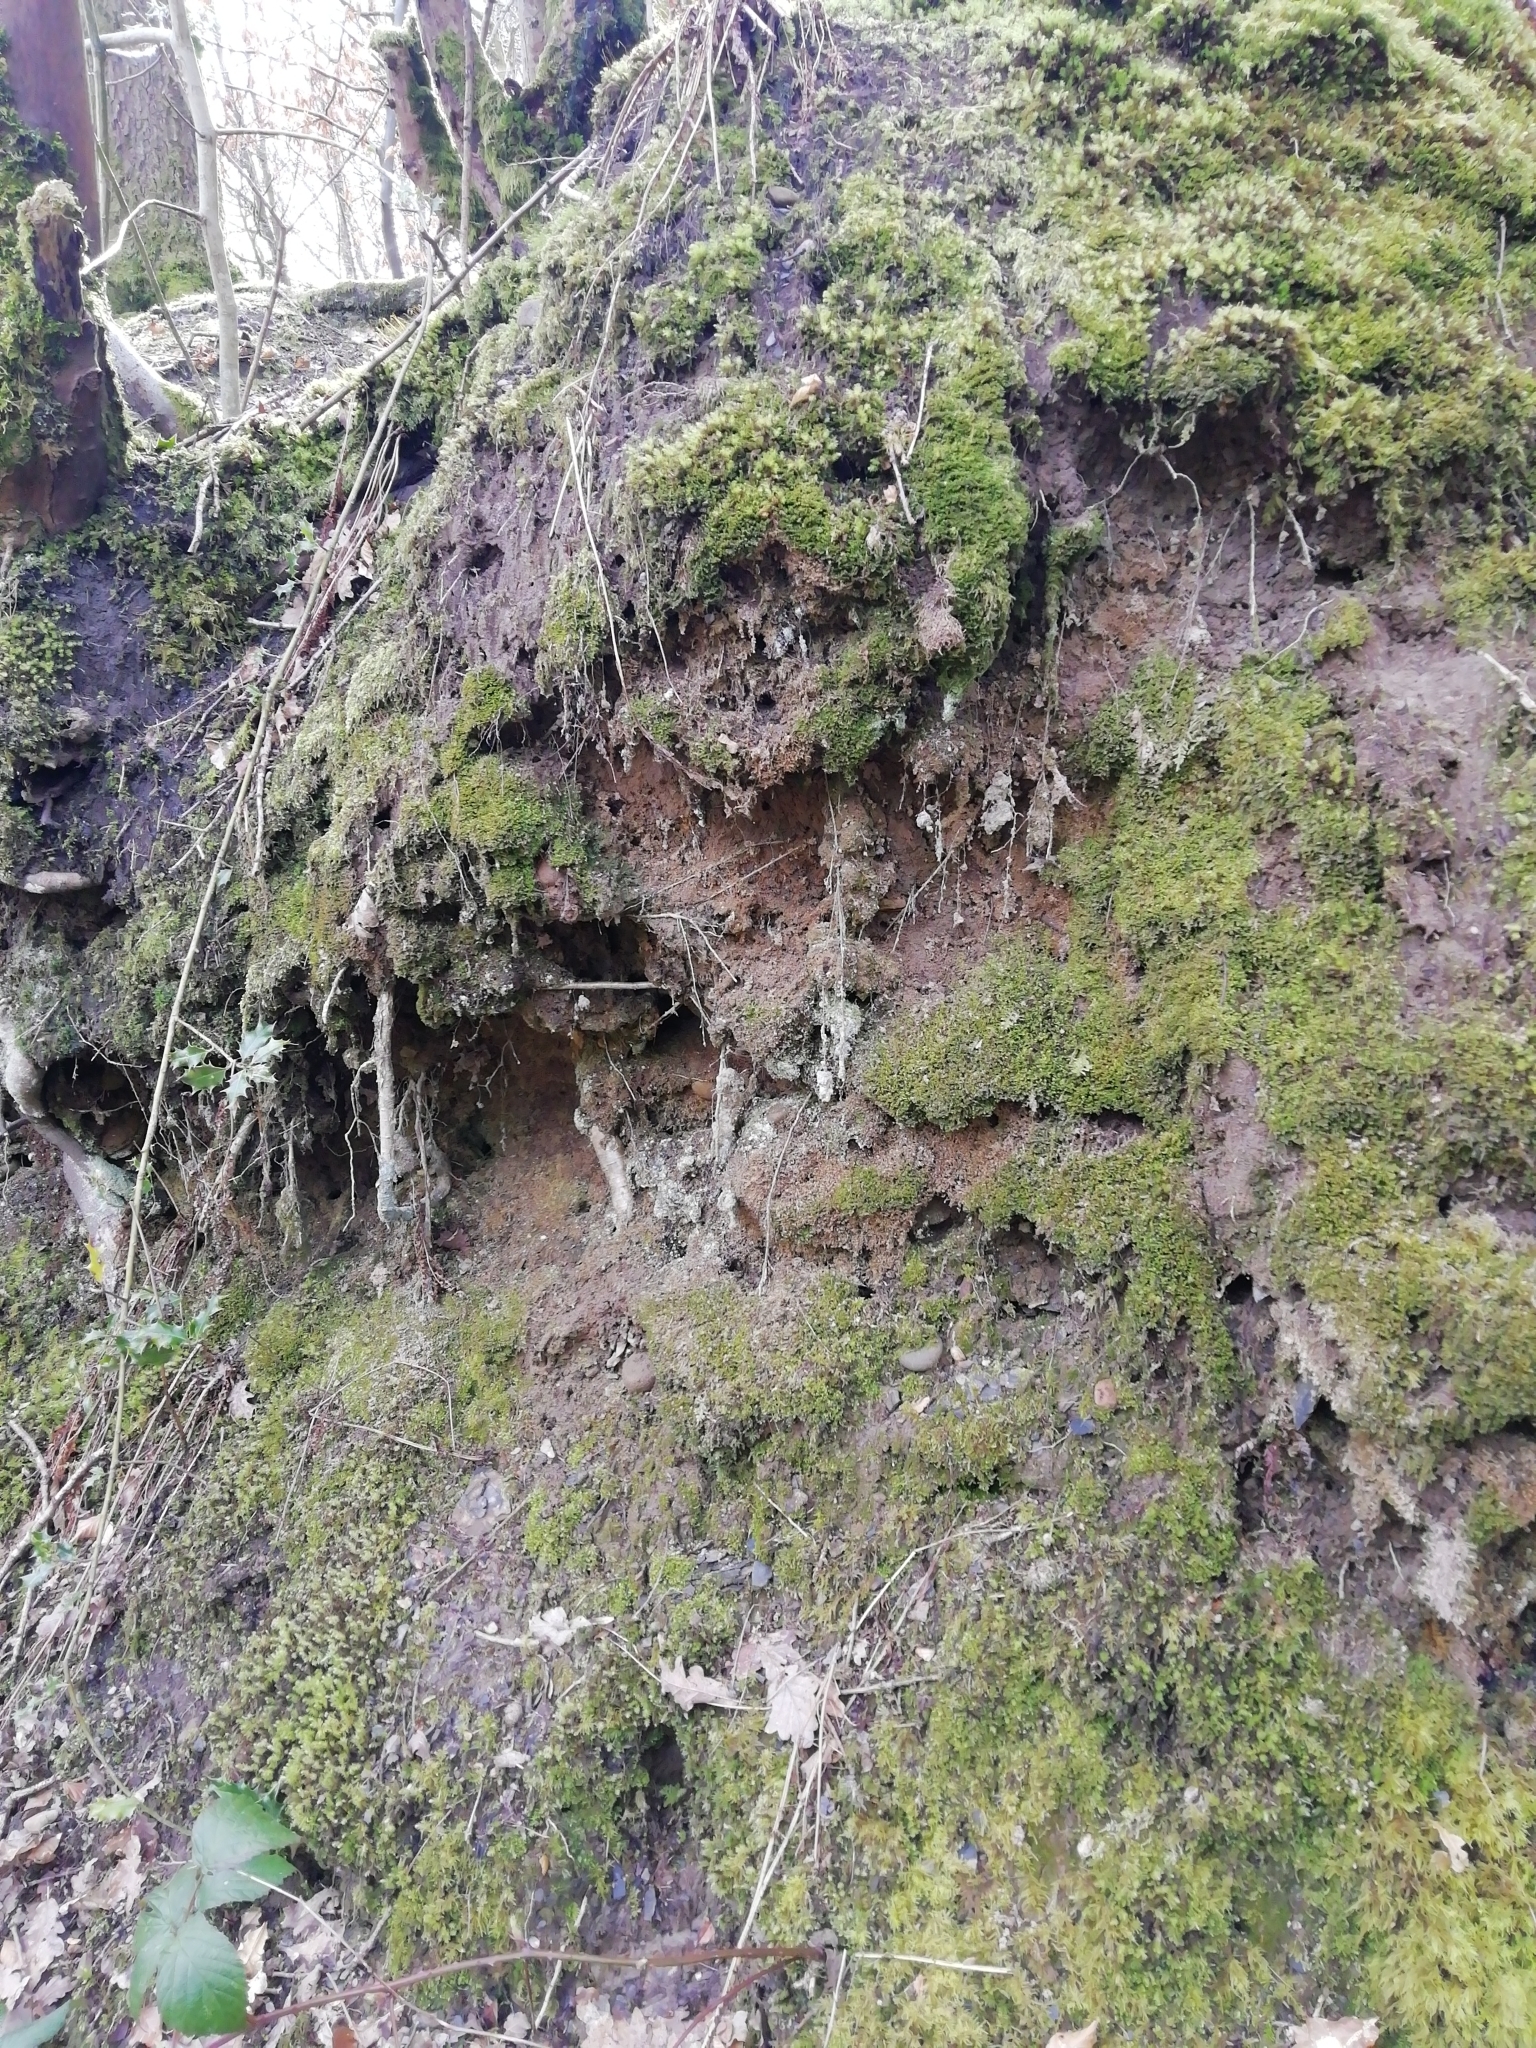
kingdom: Plantae
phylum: Bryophyta
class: Polytrichopsida
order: Polytrichales
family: Polytrichaceae
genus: Pogonatum
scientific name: Pogonatum aloides
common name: Aloe haircap
